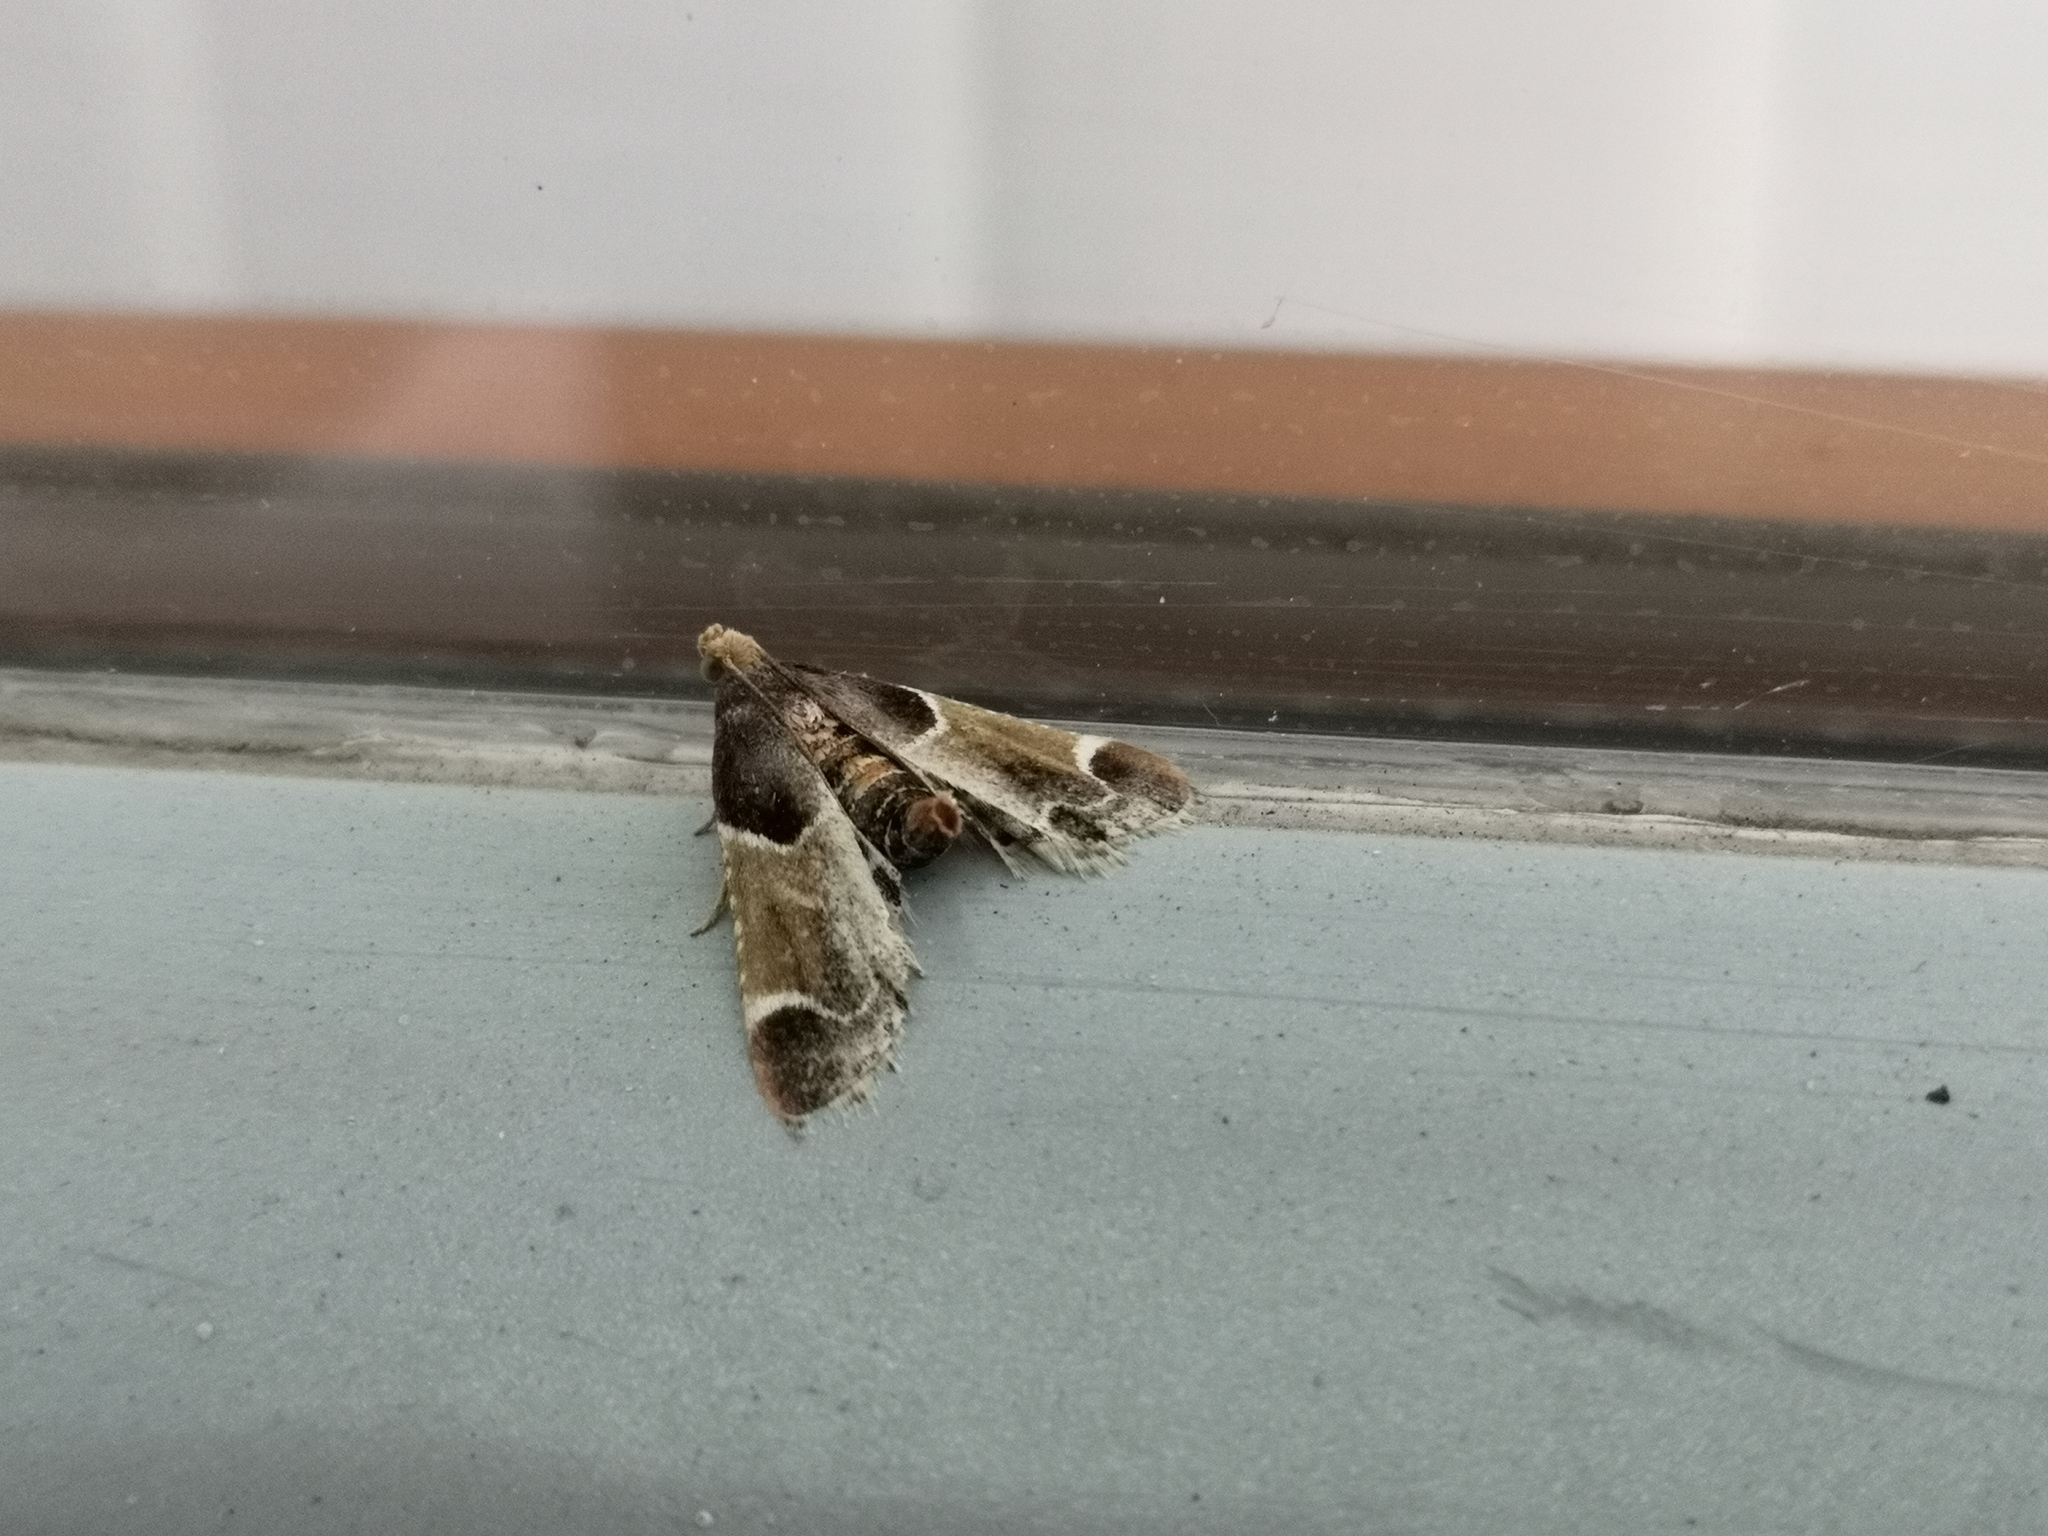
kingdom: Animalia
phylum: Arthropoda
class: Insecta
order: Lepidoptera
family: Pyralidae
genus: Pyralis
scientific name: Pyralis farinalis
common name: Meal moth
